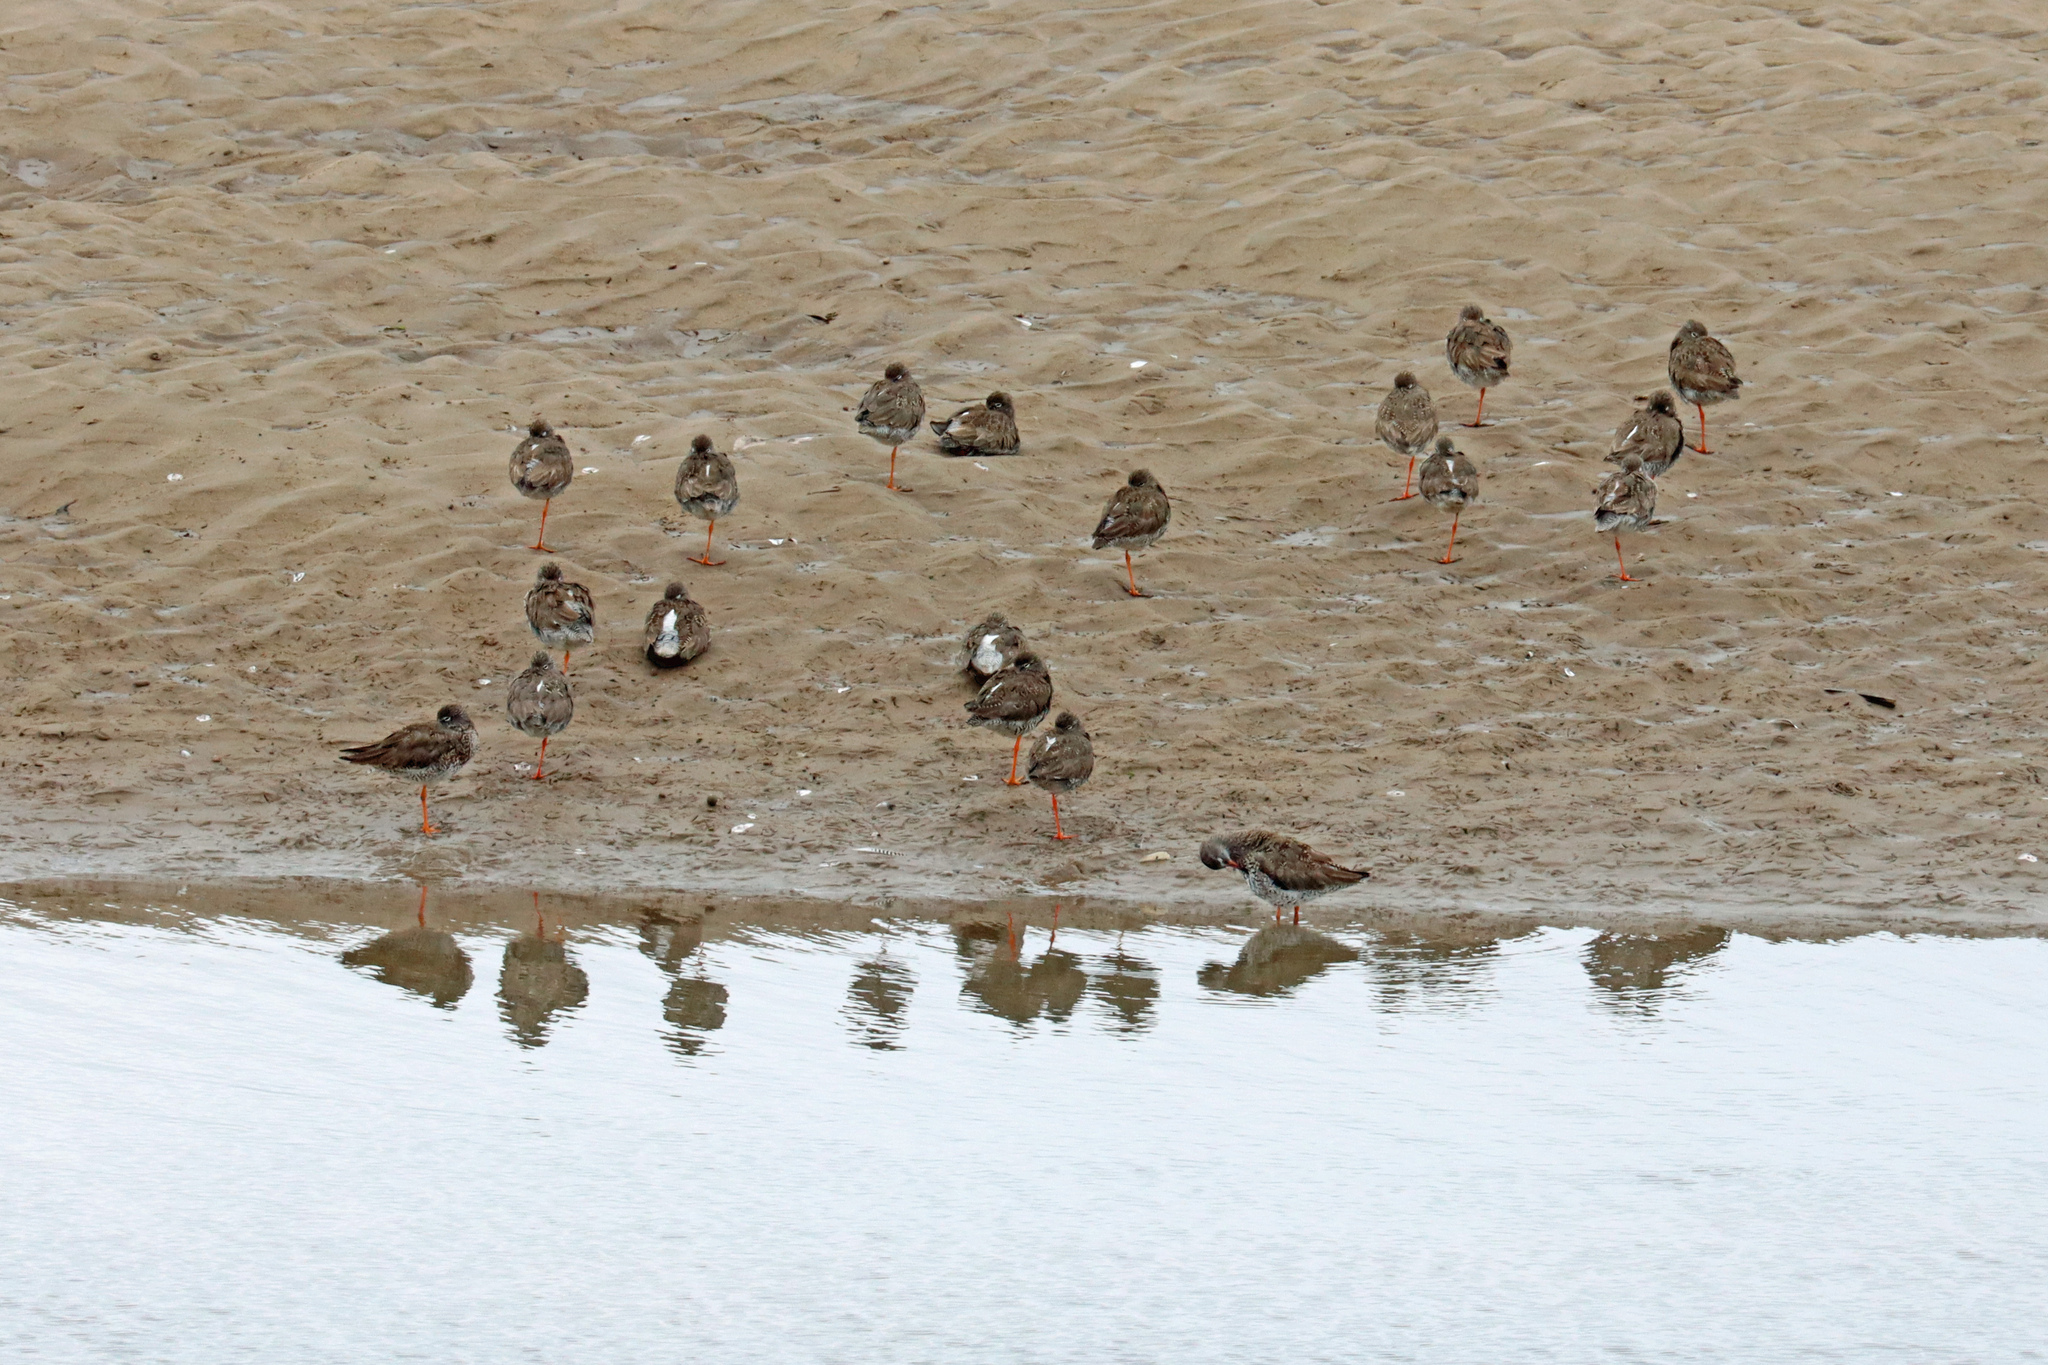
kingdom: Animalia
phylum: Chordata
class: Aves
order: Charadriiformes
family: Scolopacidae
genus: Tringa
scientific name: Tringa totanus
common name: Common redshank
